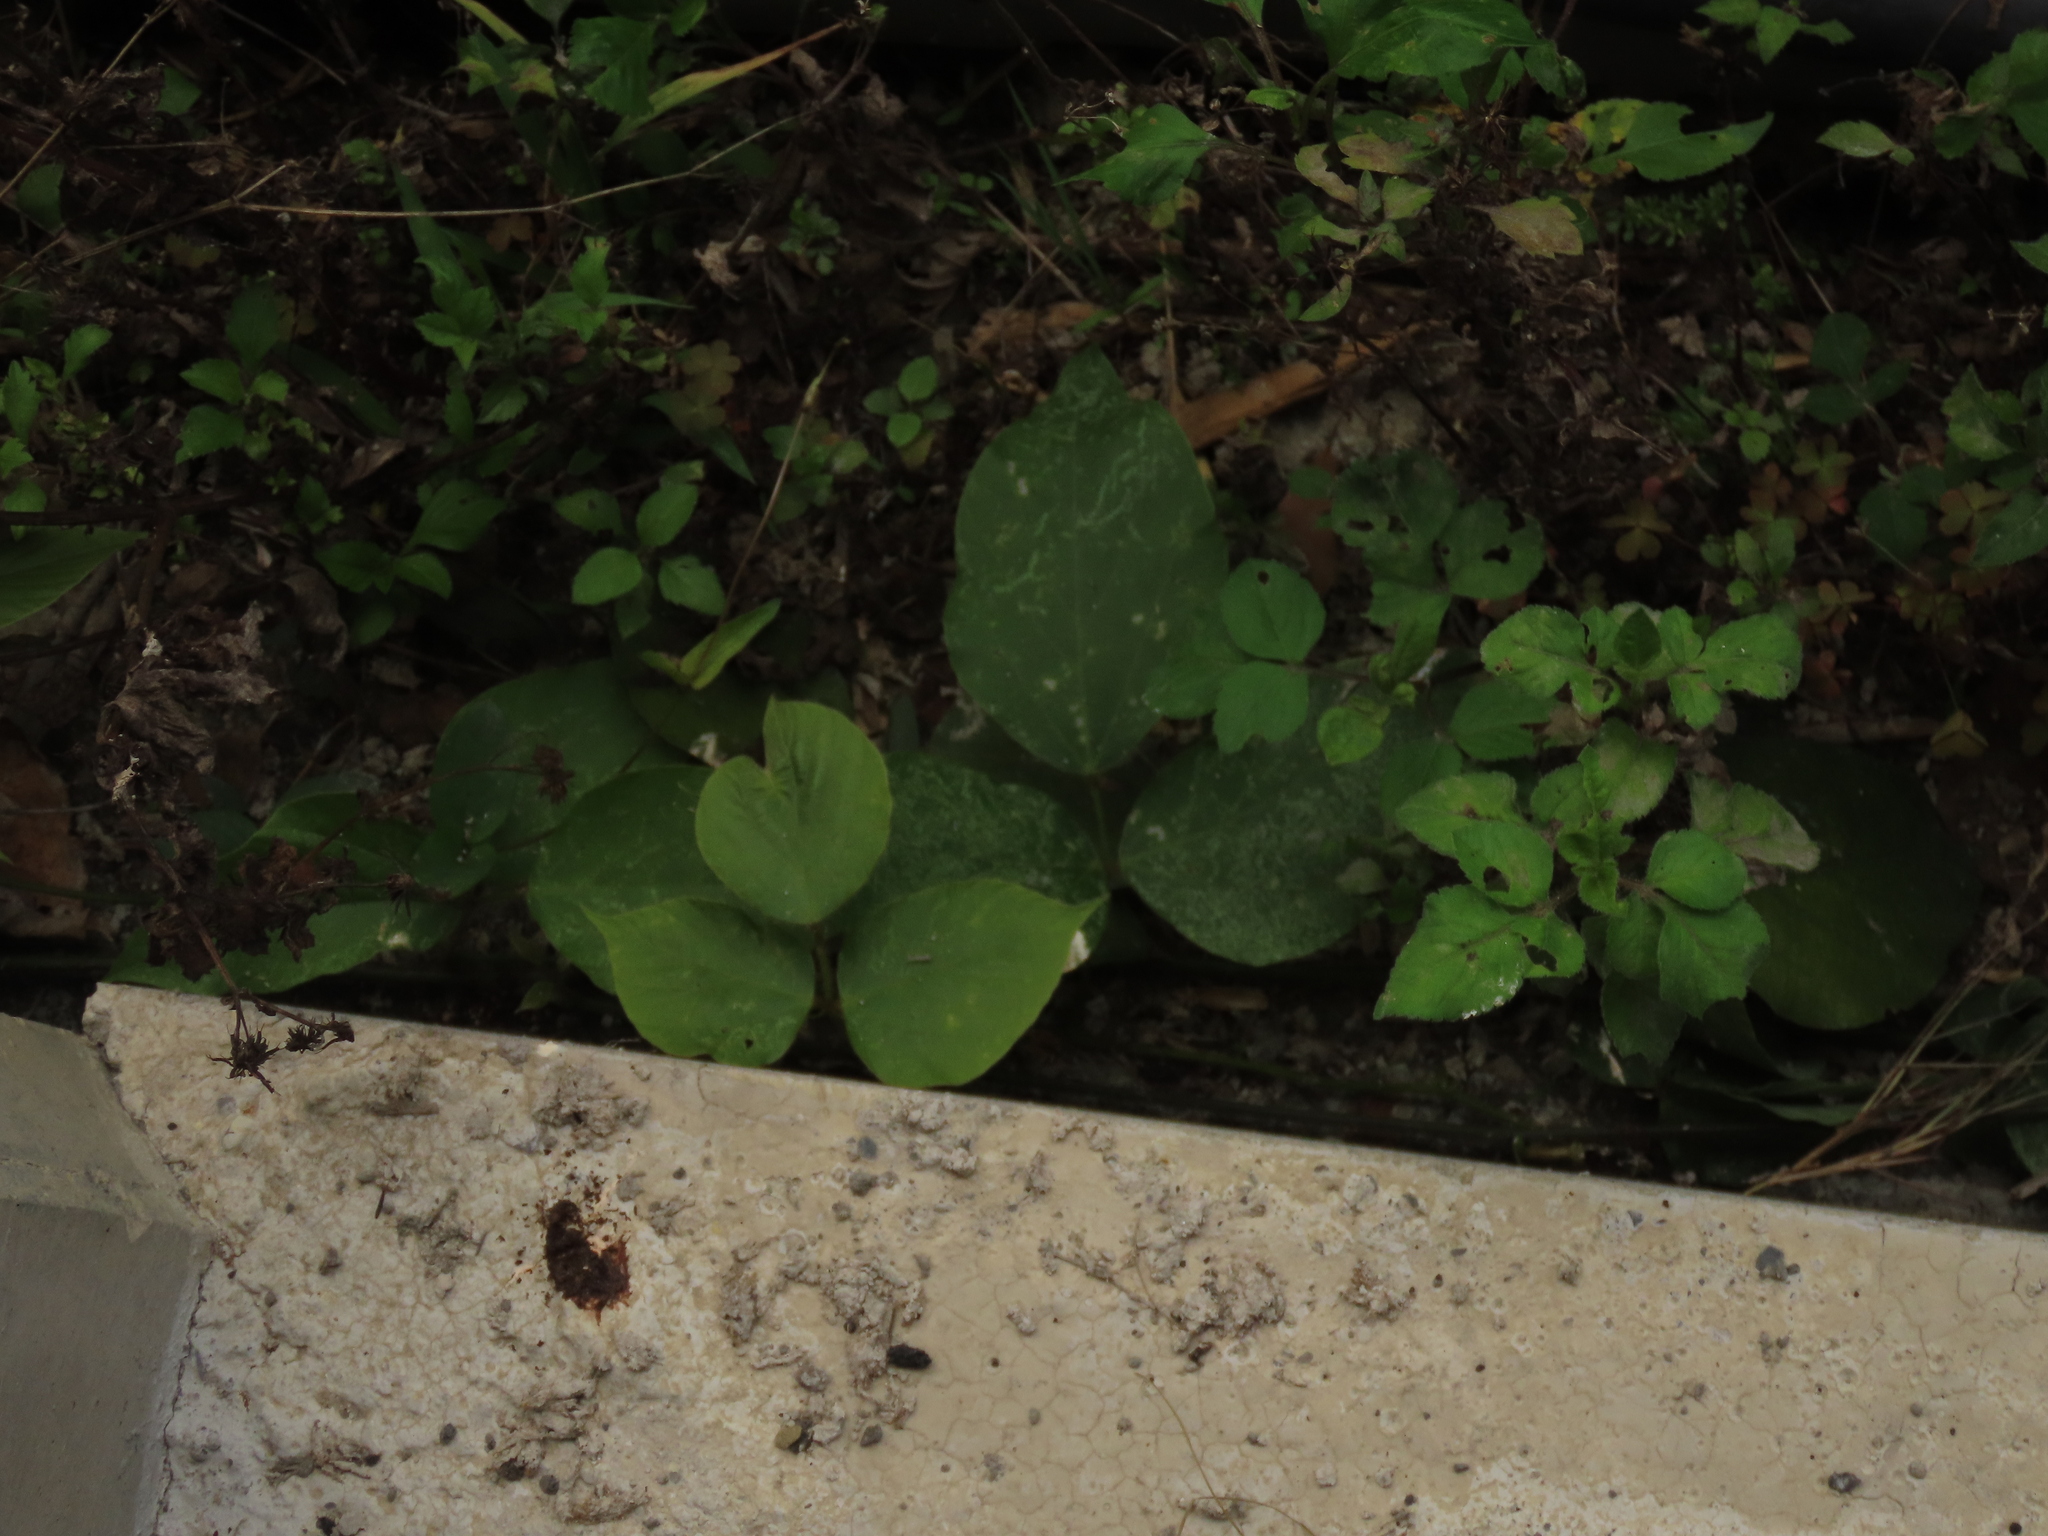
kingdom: Plantae
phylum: Tracheophyta
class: Magnoliopsida
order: Fabales
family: Fabaceae
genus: Pueraria
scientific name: Pueraria montana
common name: Kudzu
